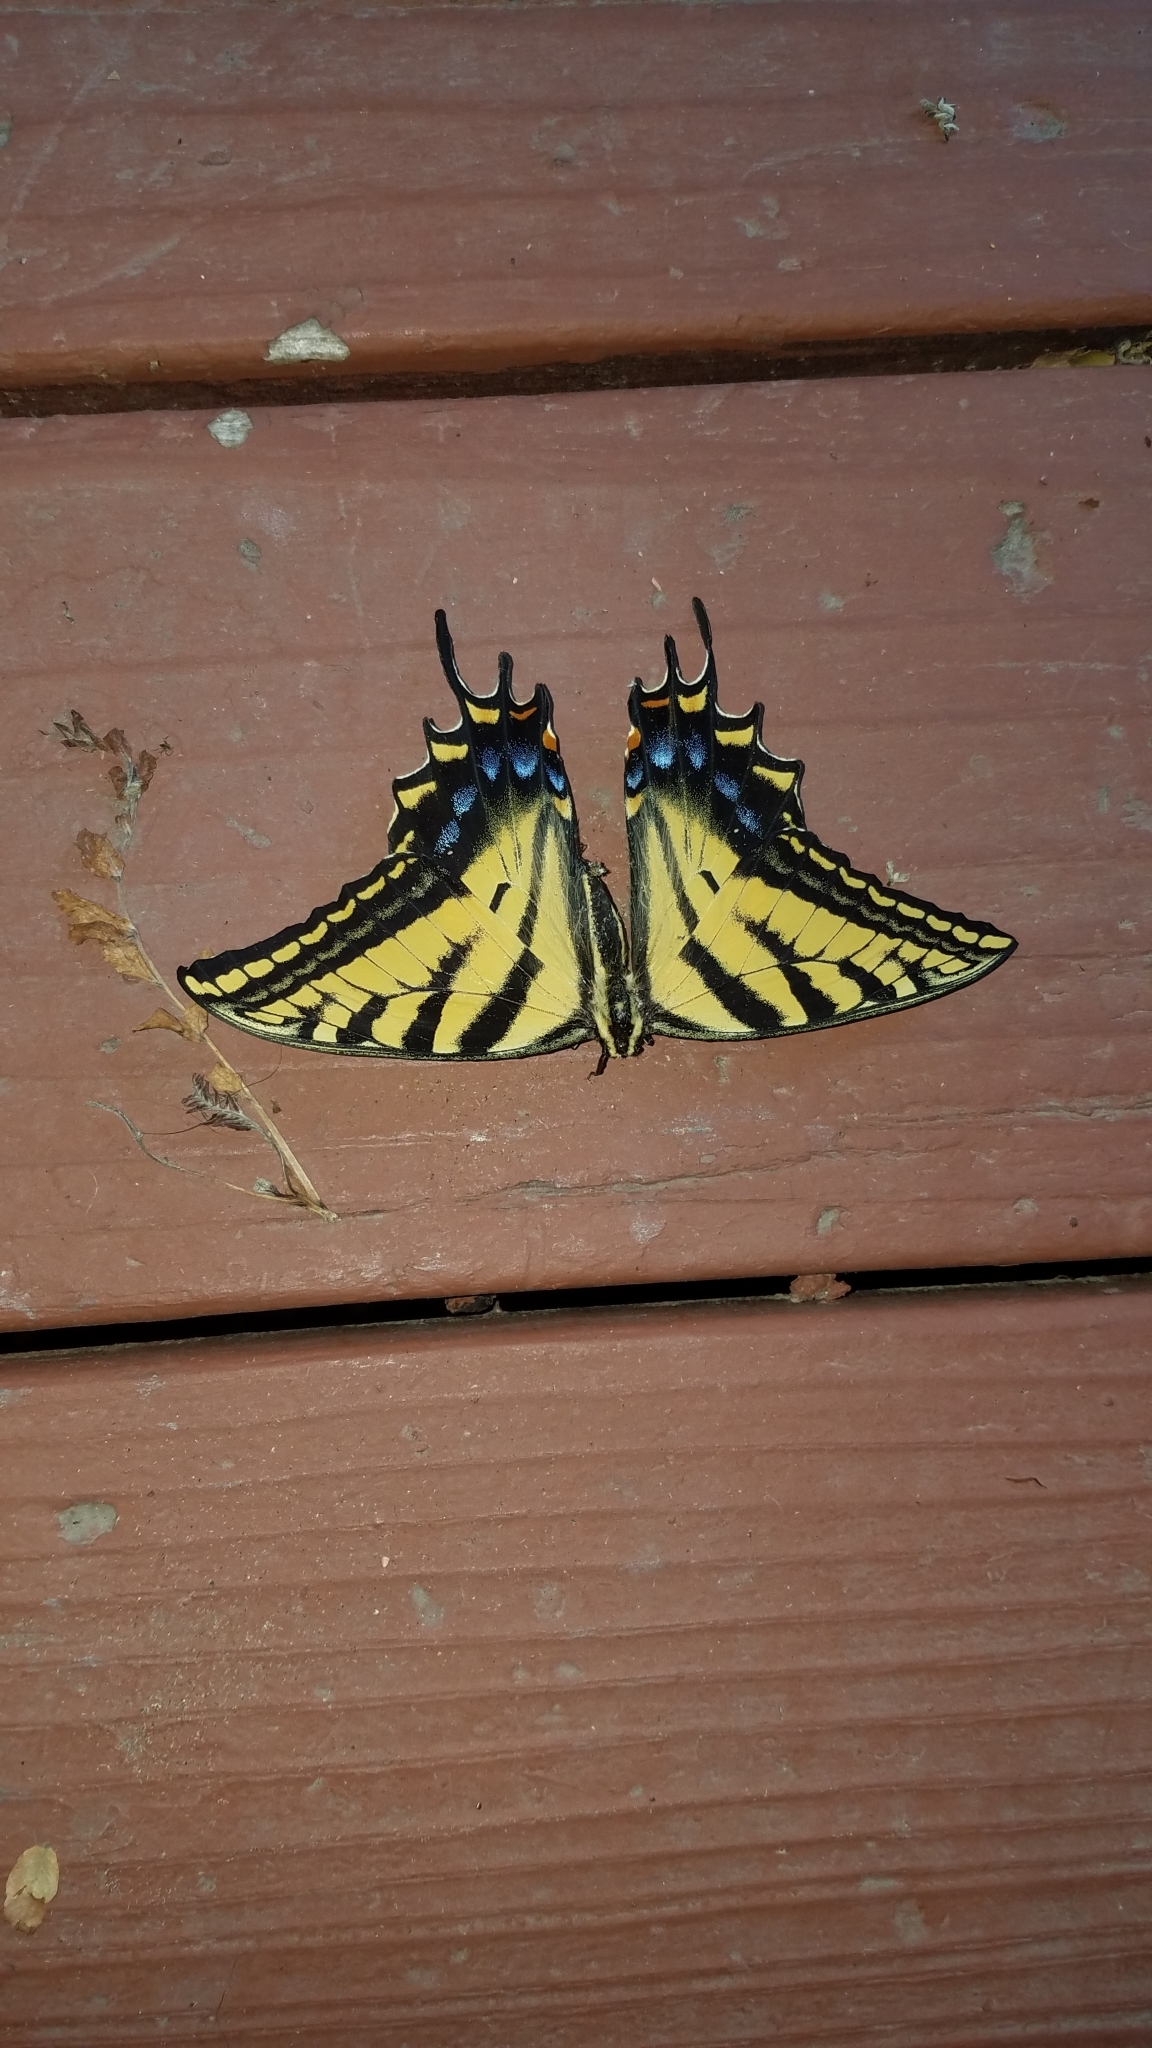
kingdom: Animalia
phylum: Arthropoda
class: Insecta
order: Lepidoptera
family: Papilionidae
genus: Papilio
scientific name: Papilio multicaudata
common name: Two-tailed tiger swallowtail
